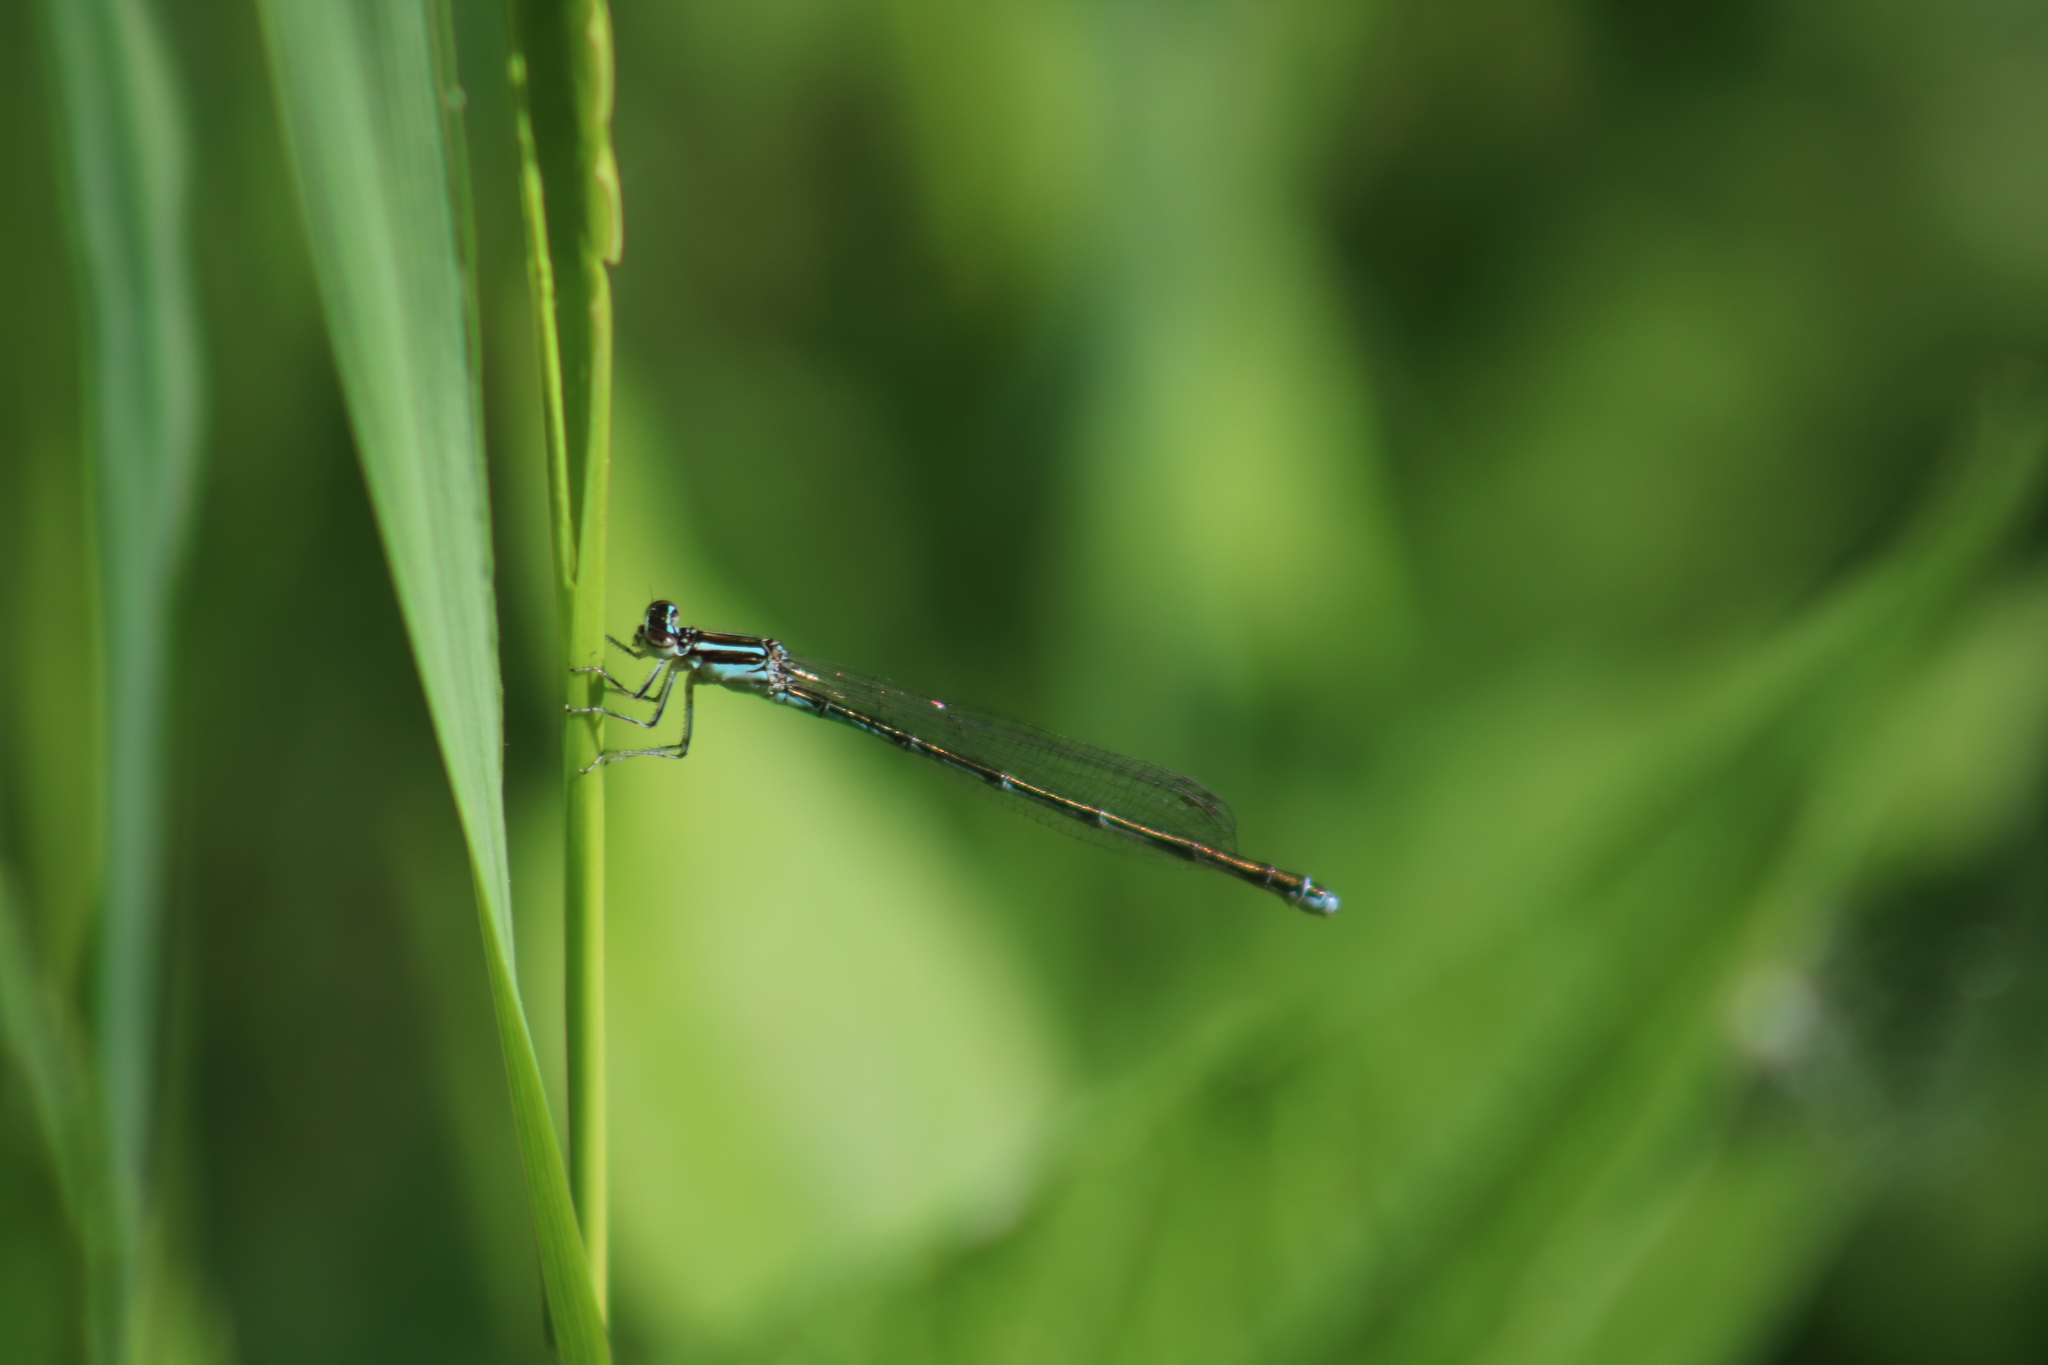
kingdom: Animalia
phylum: Arthropoda
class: Insecta
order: Odonata
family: Coenagrionidae
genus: Enallagma
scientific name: Enallagma exsulans
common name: Stream bluet
